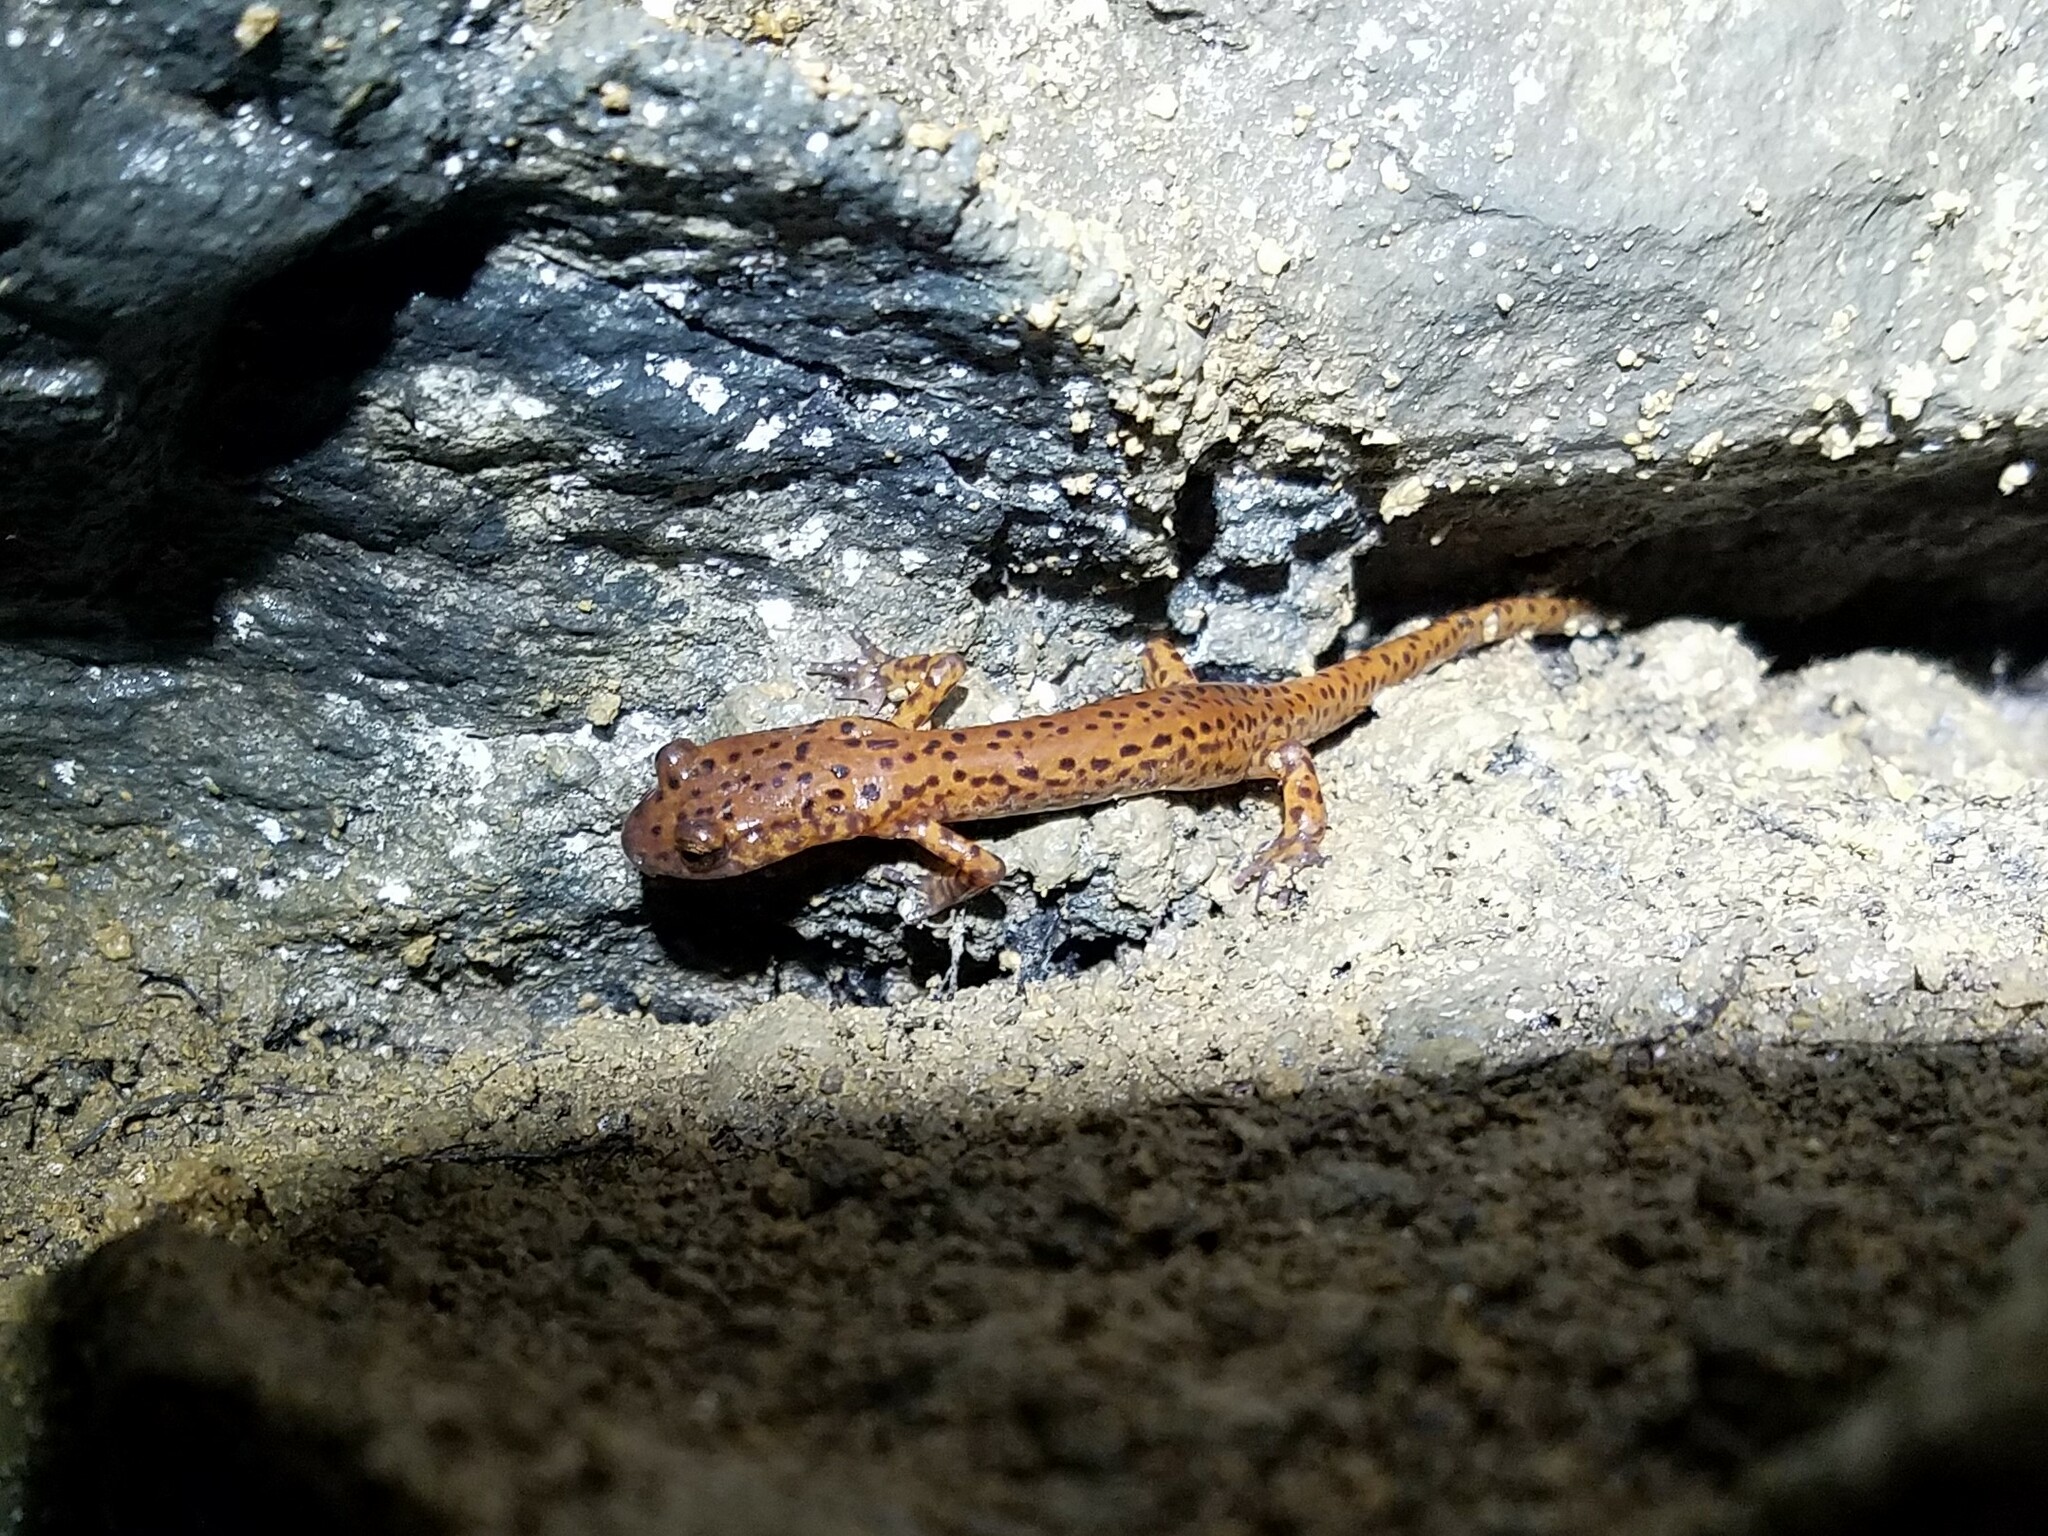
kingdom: Animalia
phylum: Chordata
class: Amphibia
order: Caudata
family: Plethodontidae
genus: Eurycea
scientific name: Eurycea lucifuga
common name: Cave salamander
